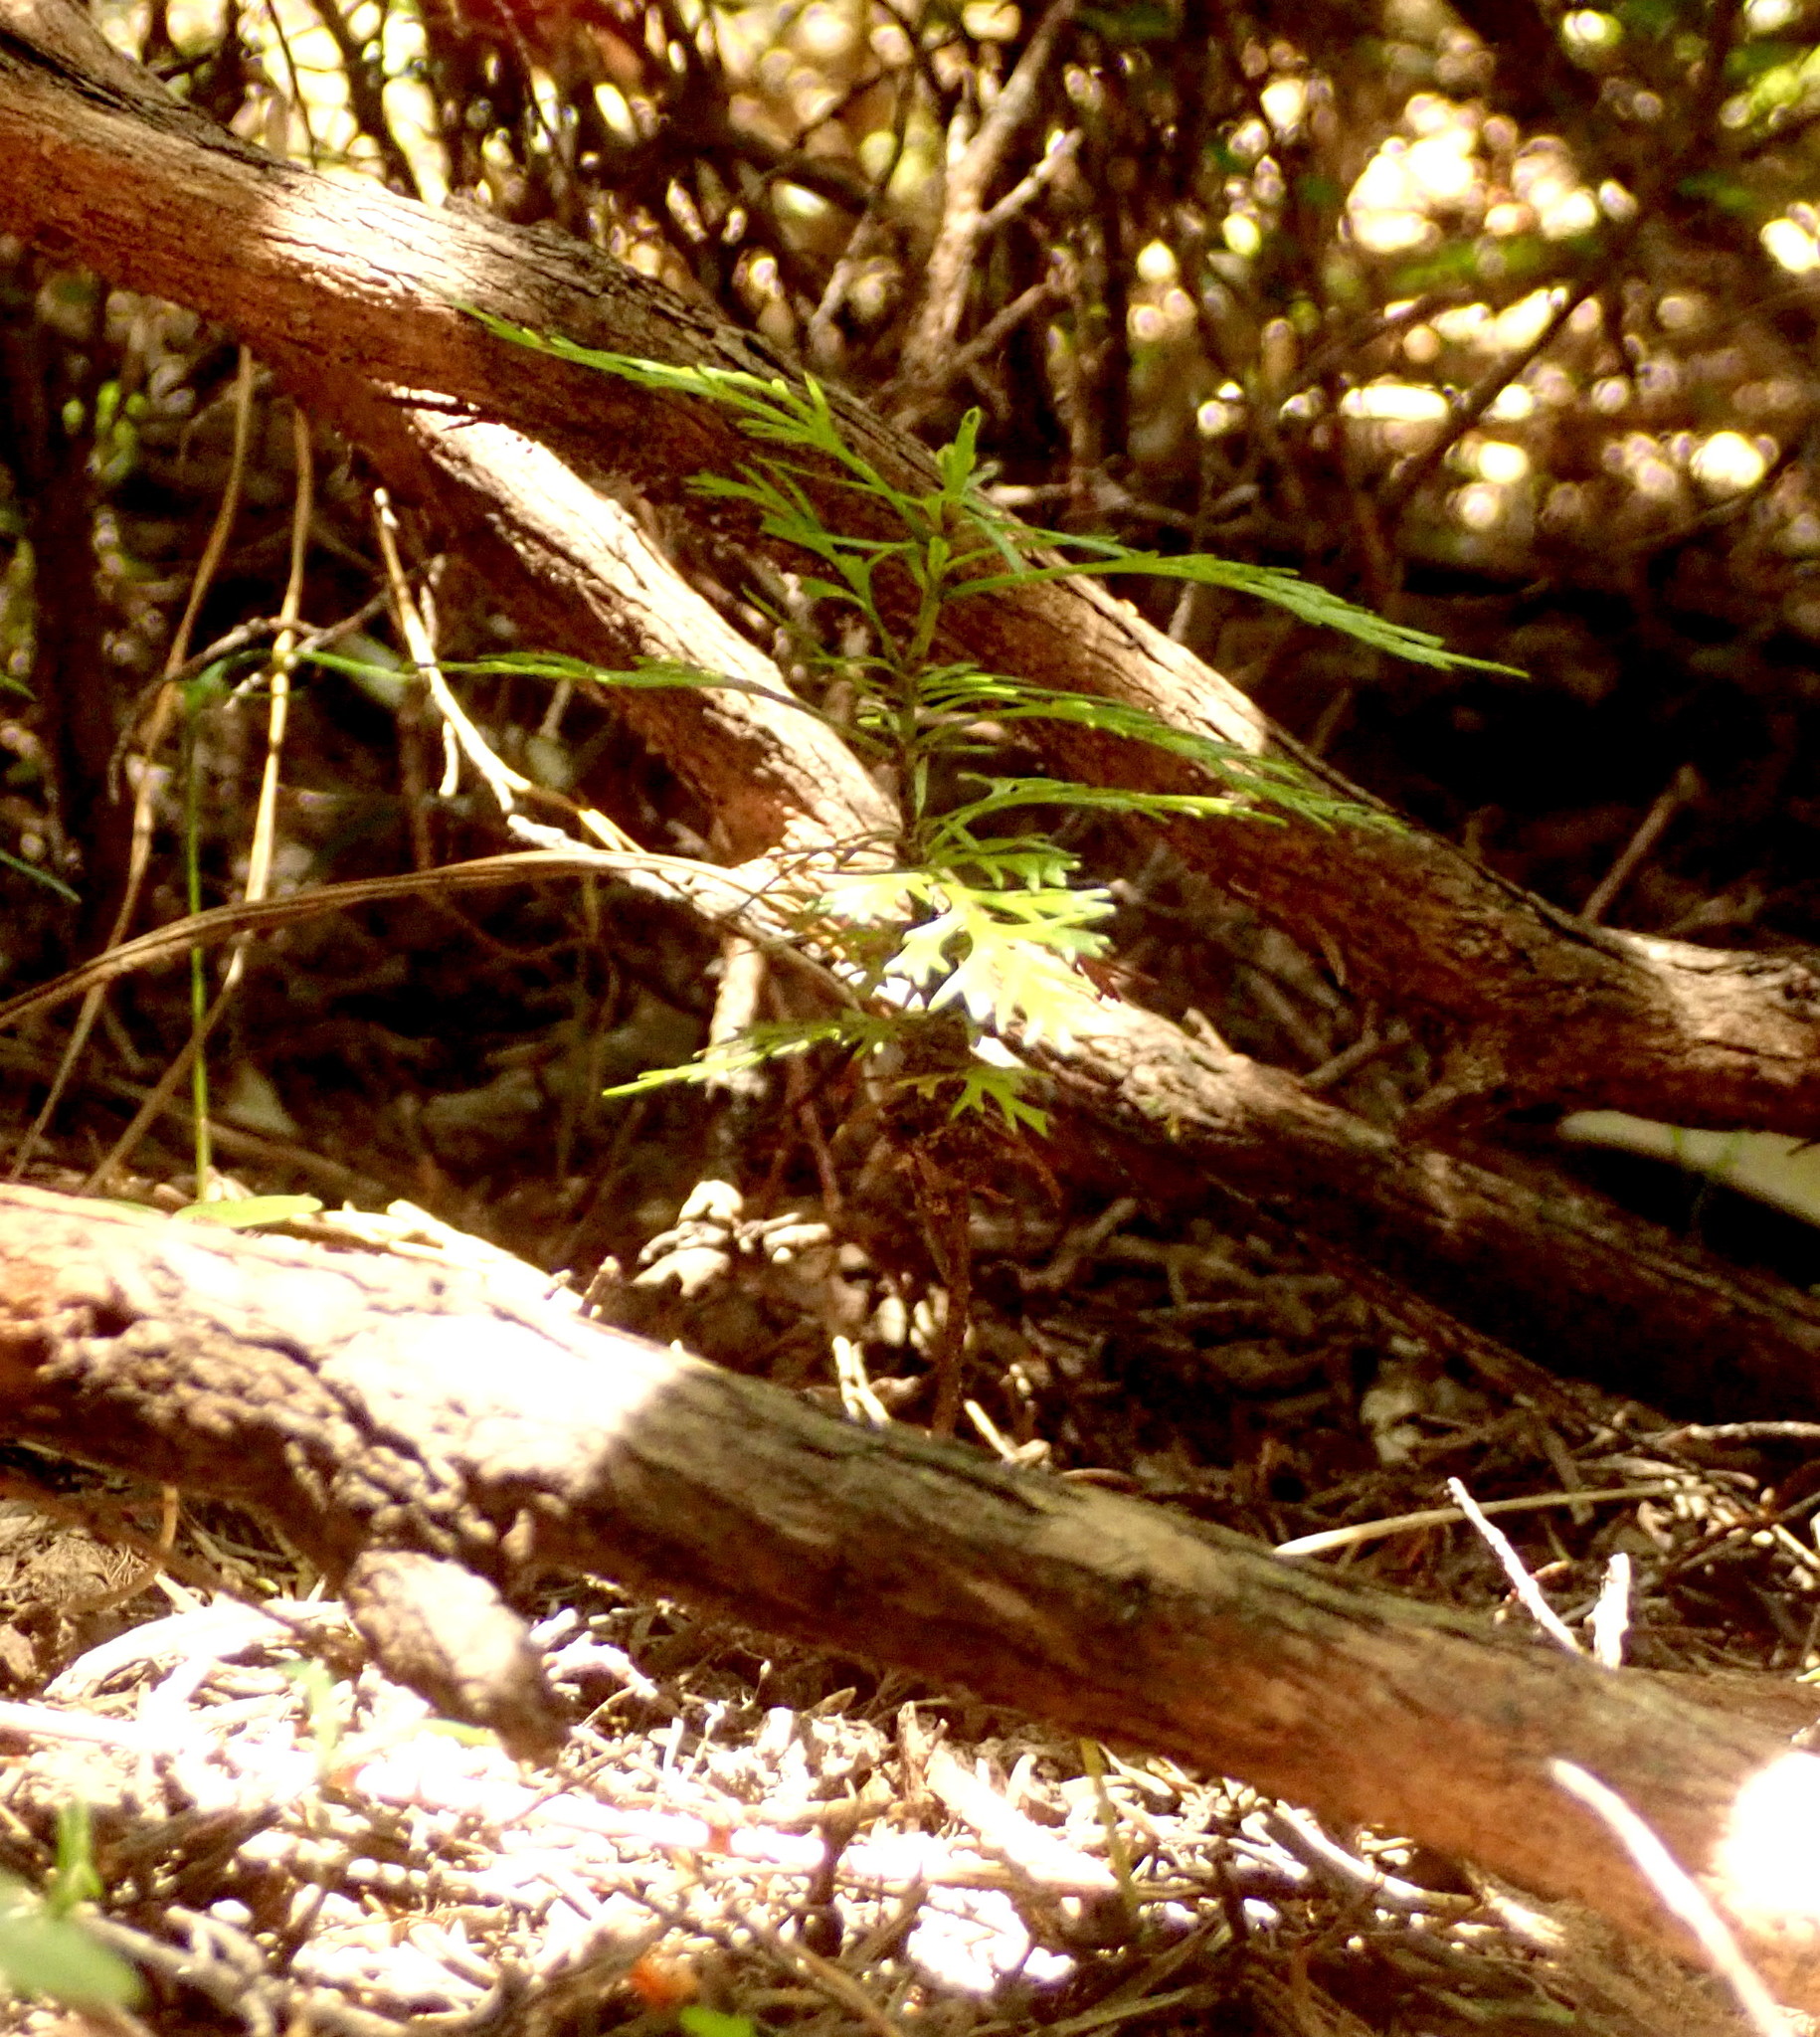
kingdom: Plantae
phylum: Tracheophyta
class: Pinopsida
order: Pinales
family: Phyllocladaceae
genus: Phyllocladus
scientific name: Phyllocladus trichomanoides
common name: Celery pine
